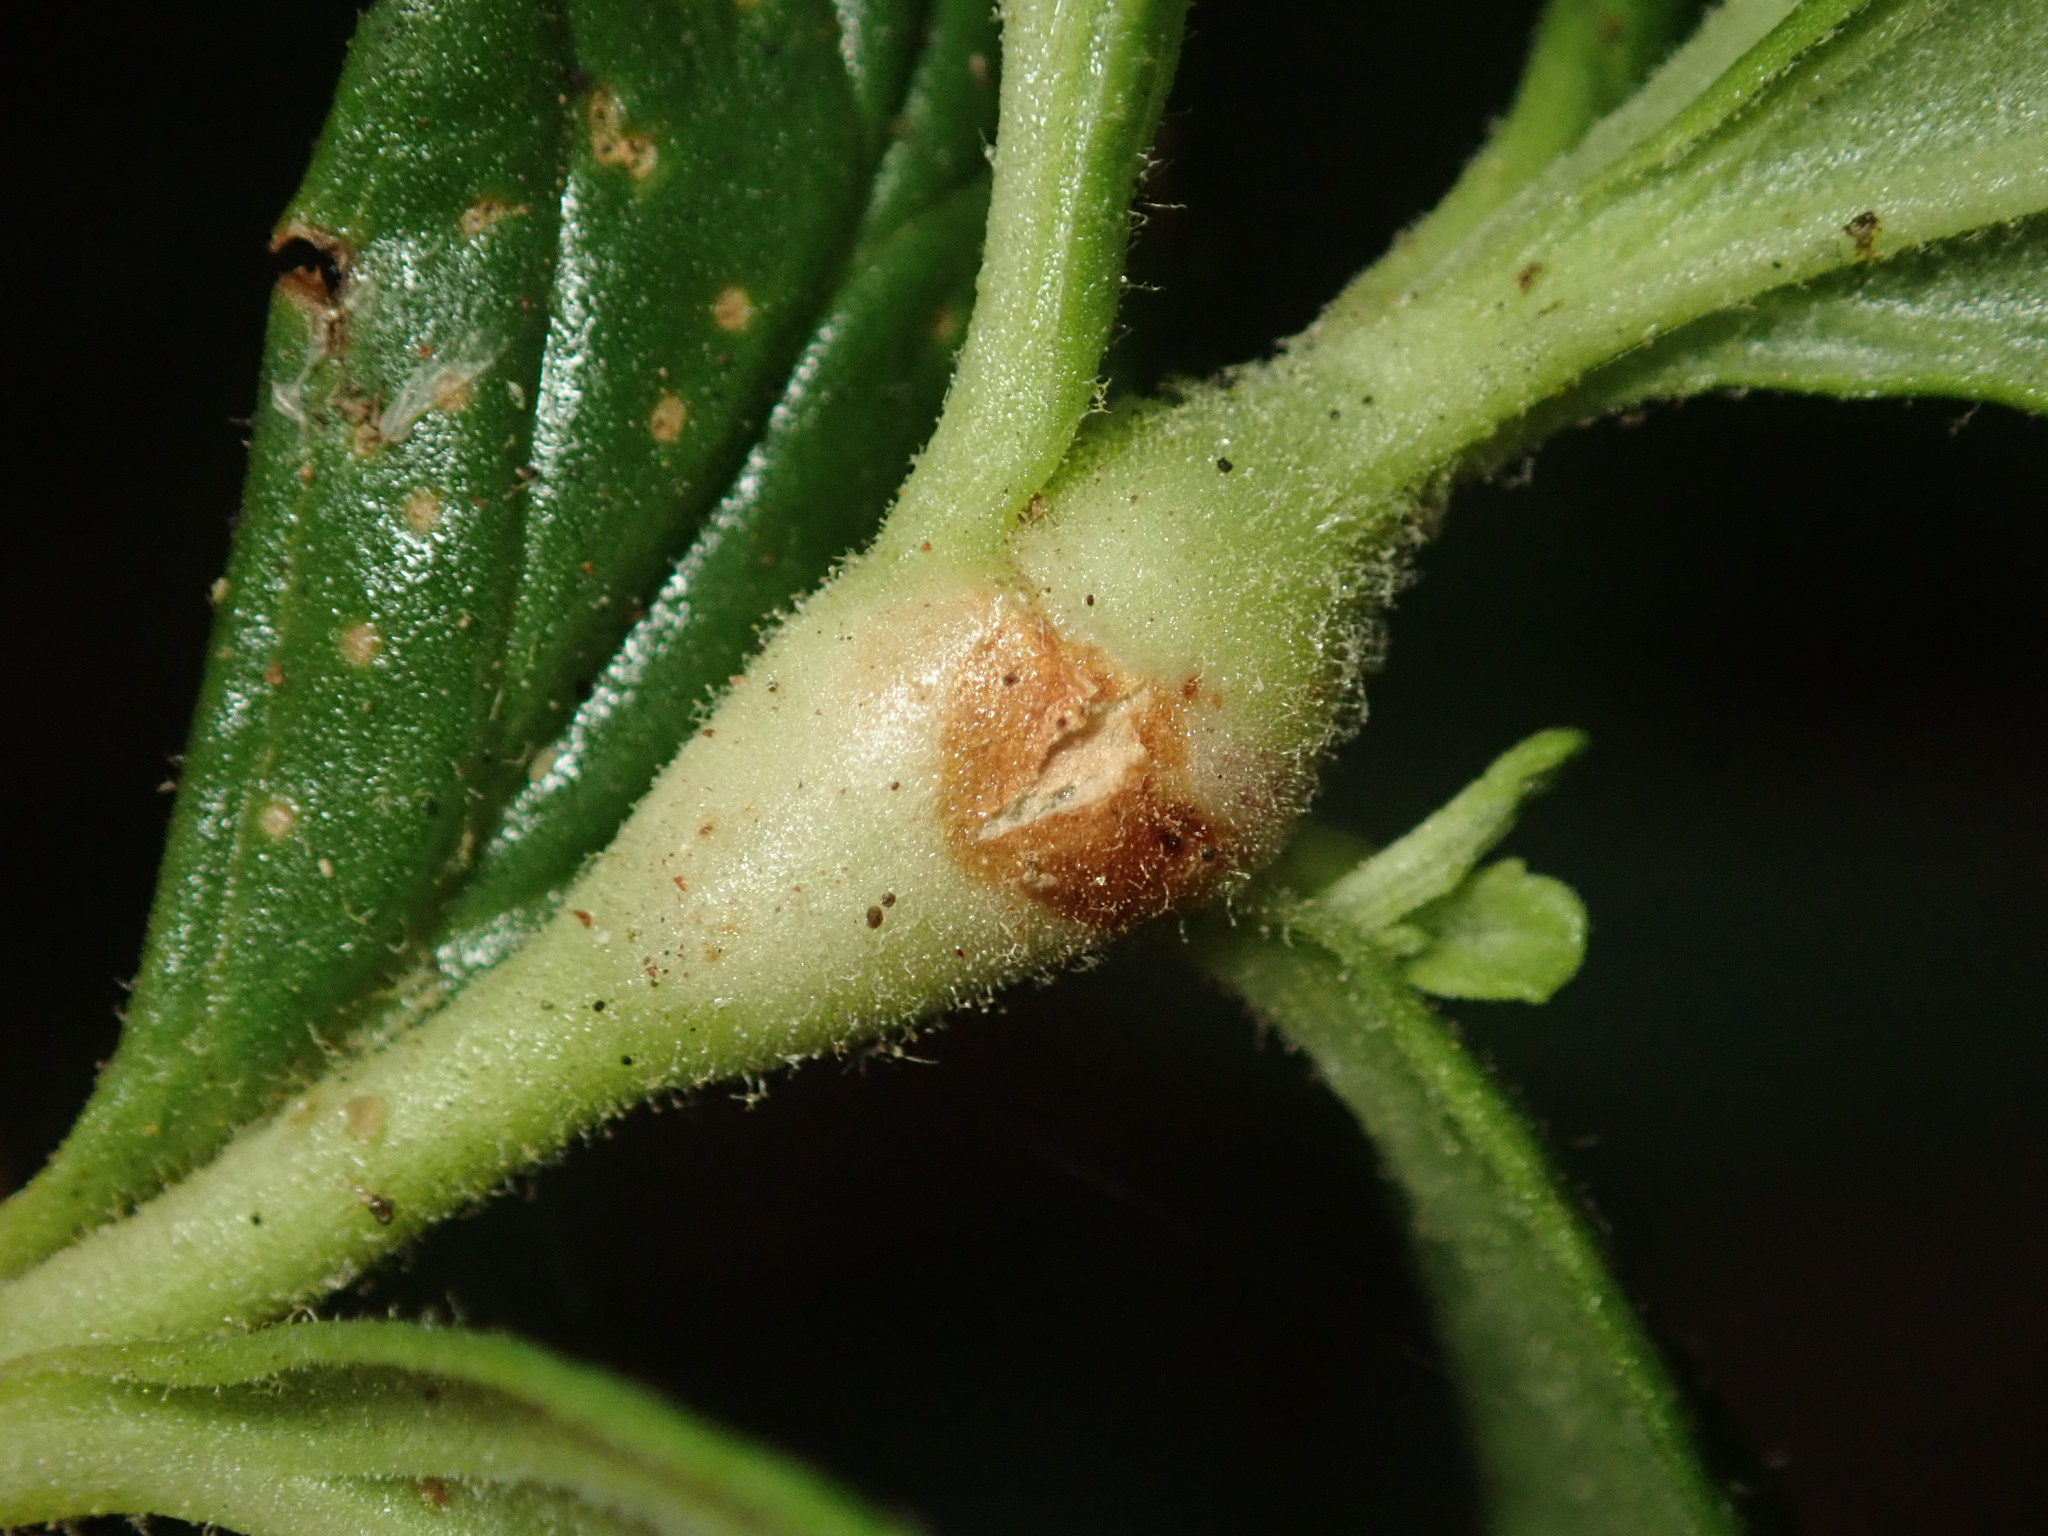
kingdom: Animalia
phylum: Arthropoda
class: Insecta
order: Diptera
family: Cecidomyiidae
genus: Neolasioptera
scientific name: Neolasioptera mimuli
